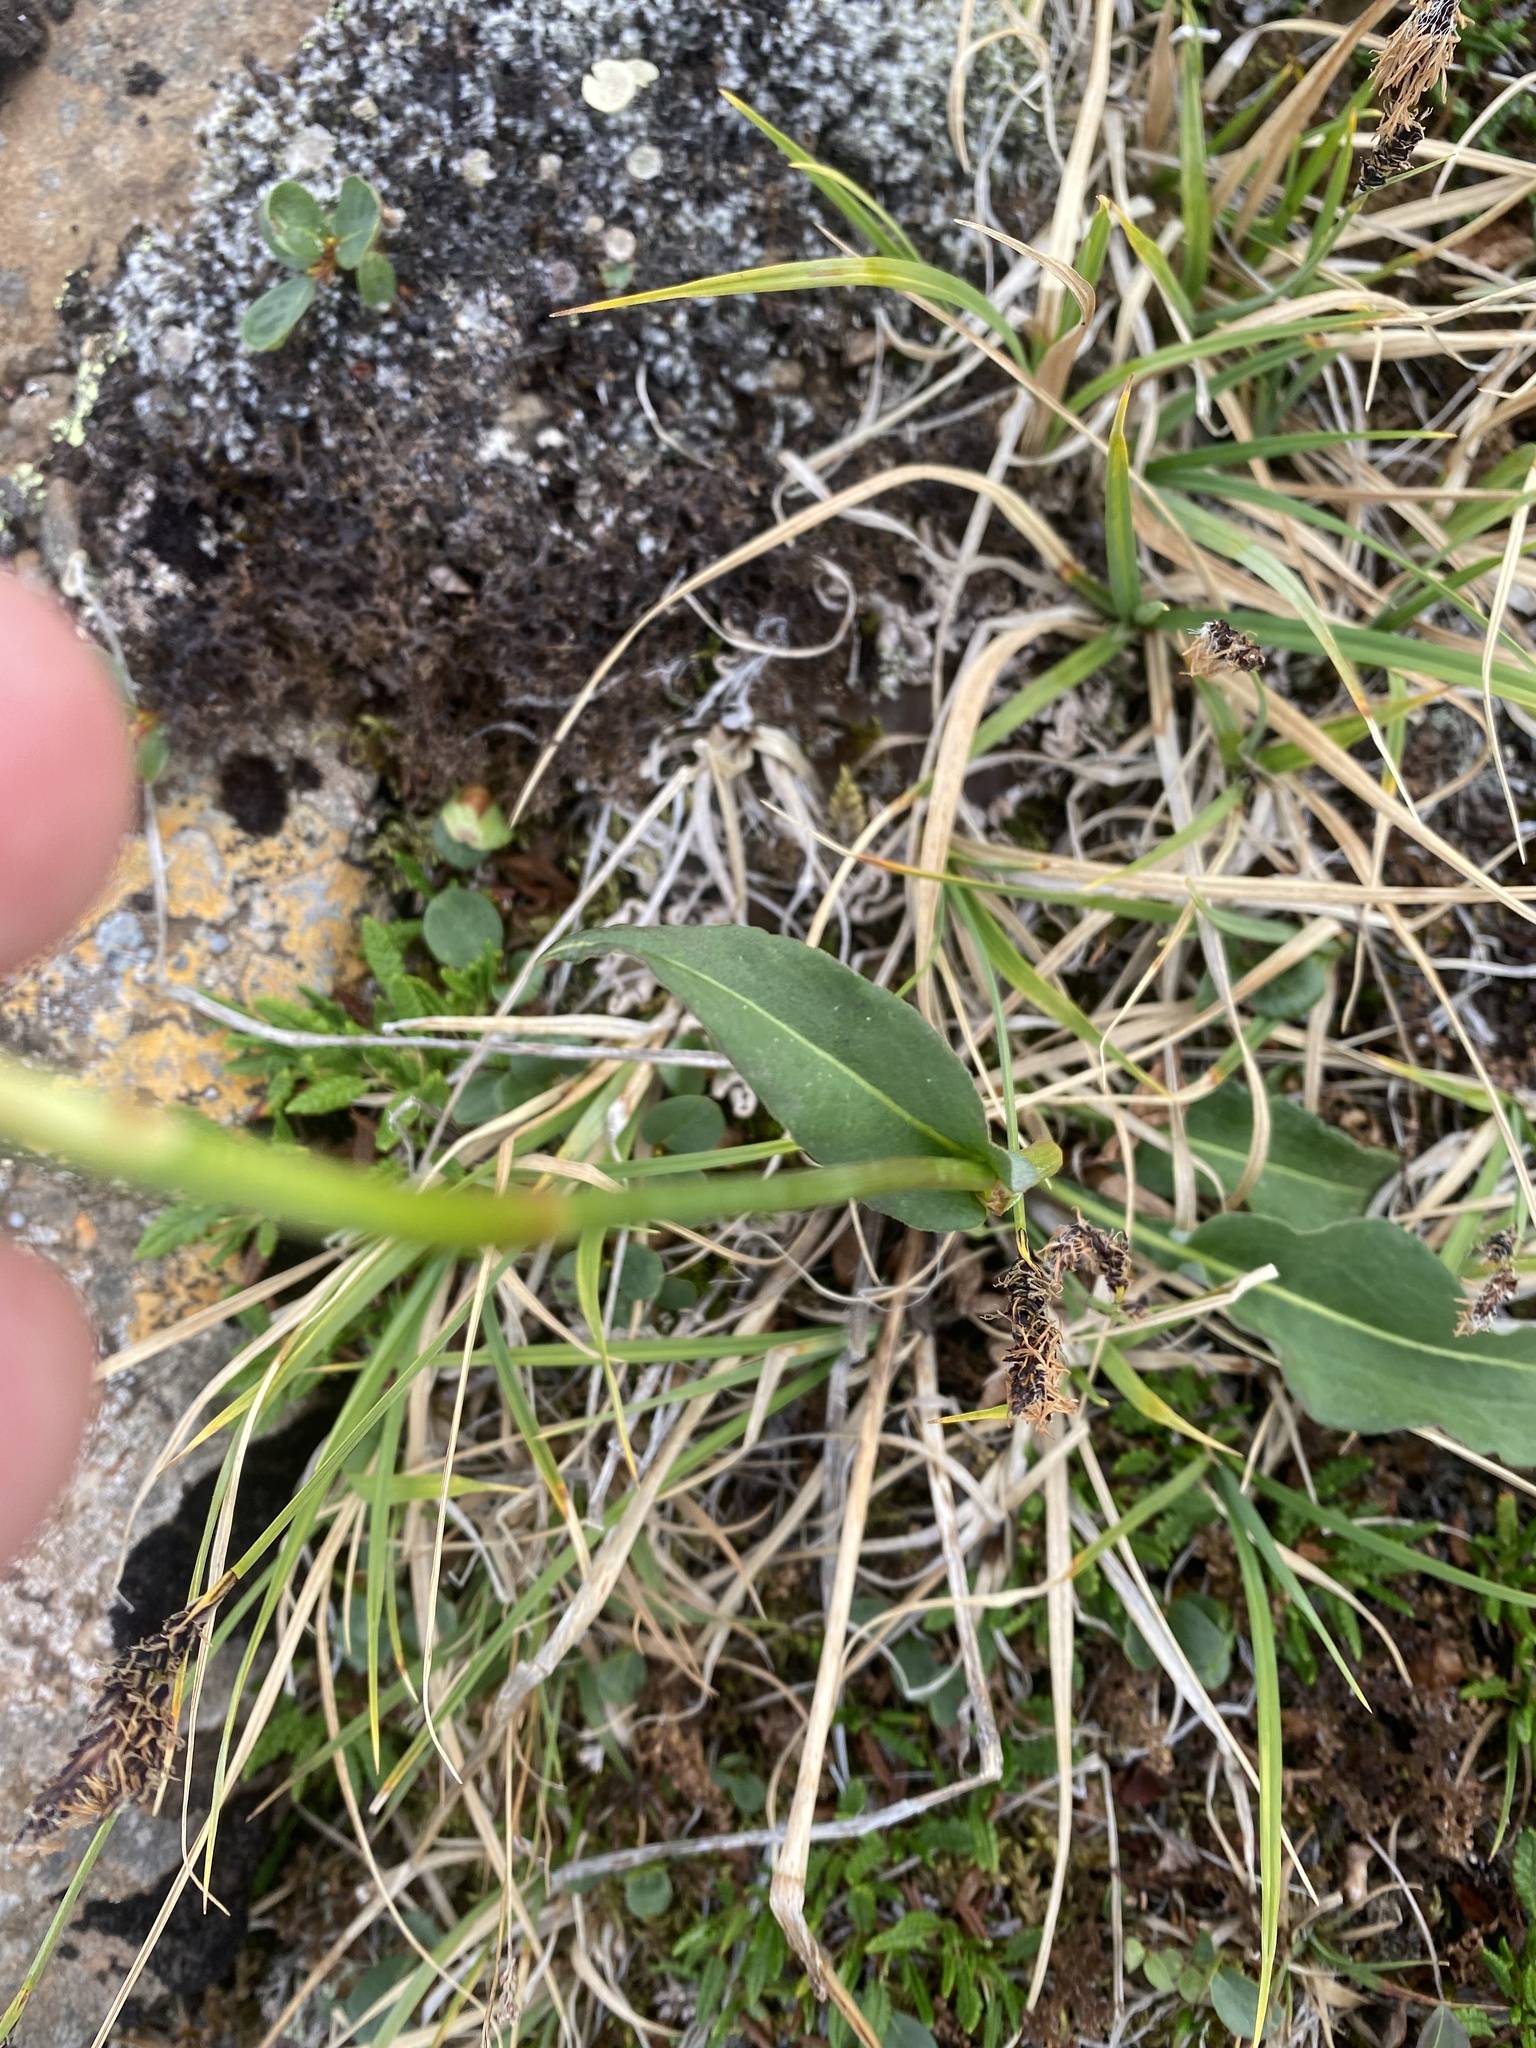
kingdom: Plantae
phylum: Tracheophyta
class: Magnoliopsida
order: Caryophyllales
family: Polygonaceae
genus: Bistorta
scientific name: Bistorta officinalis
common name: Common bistort
